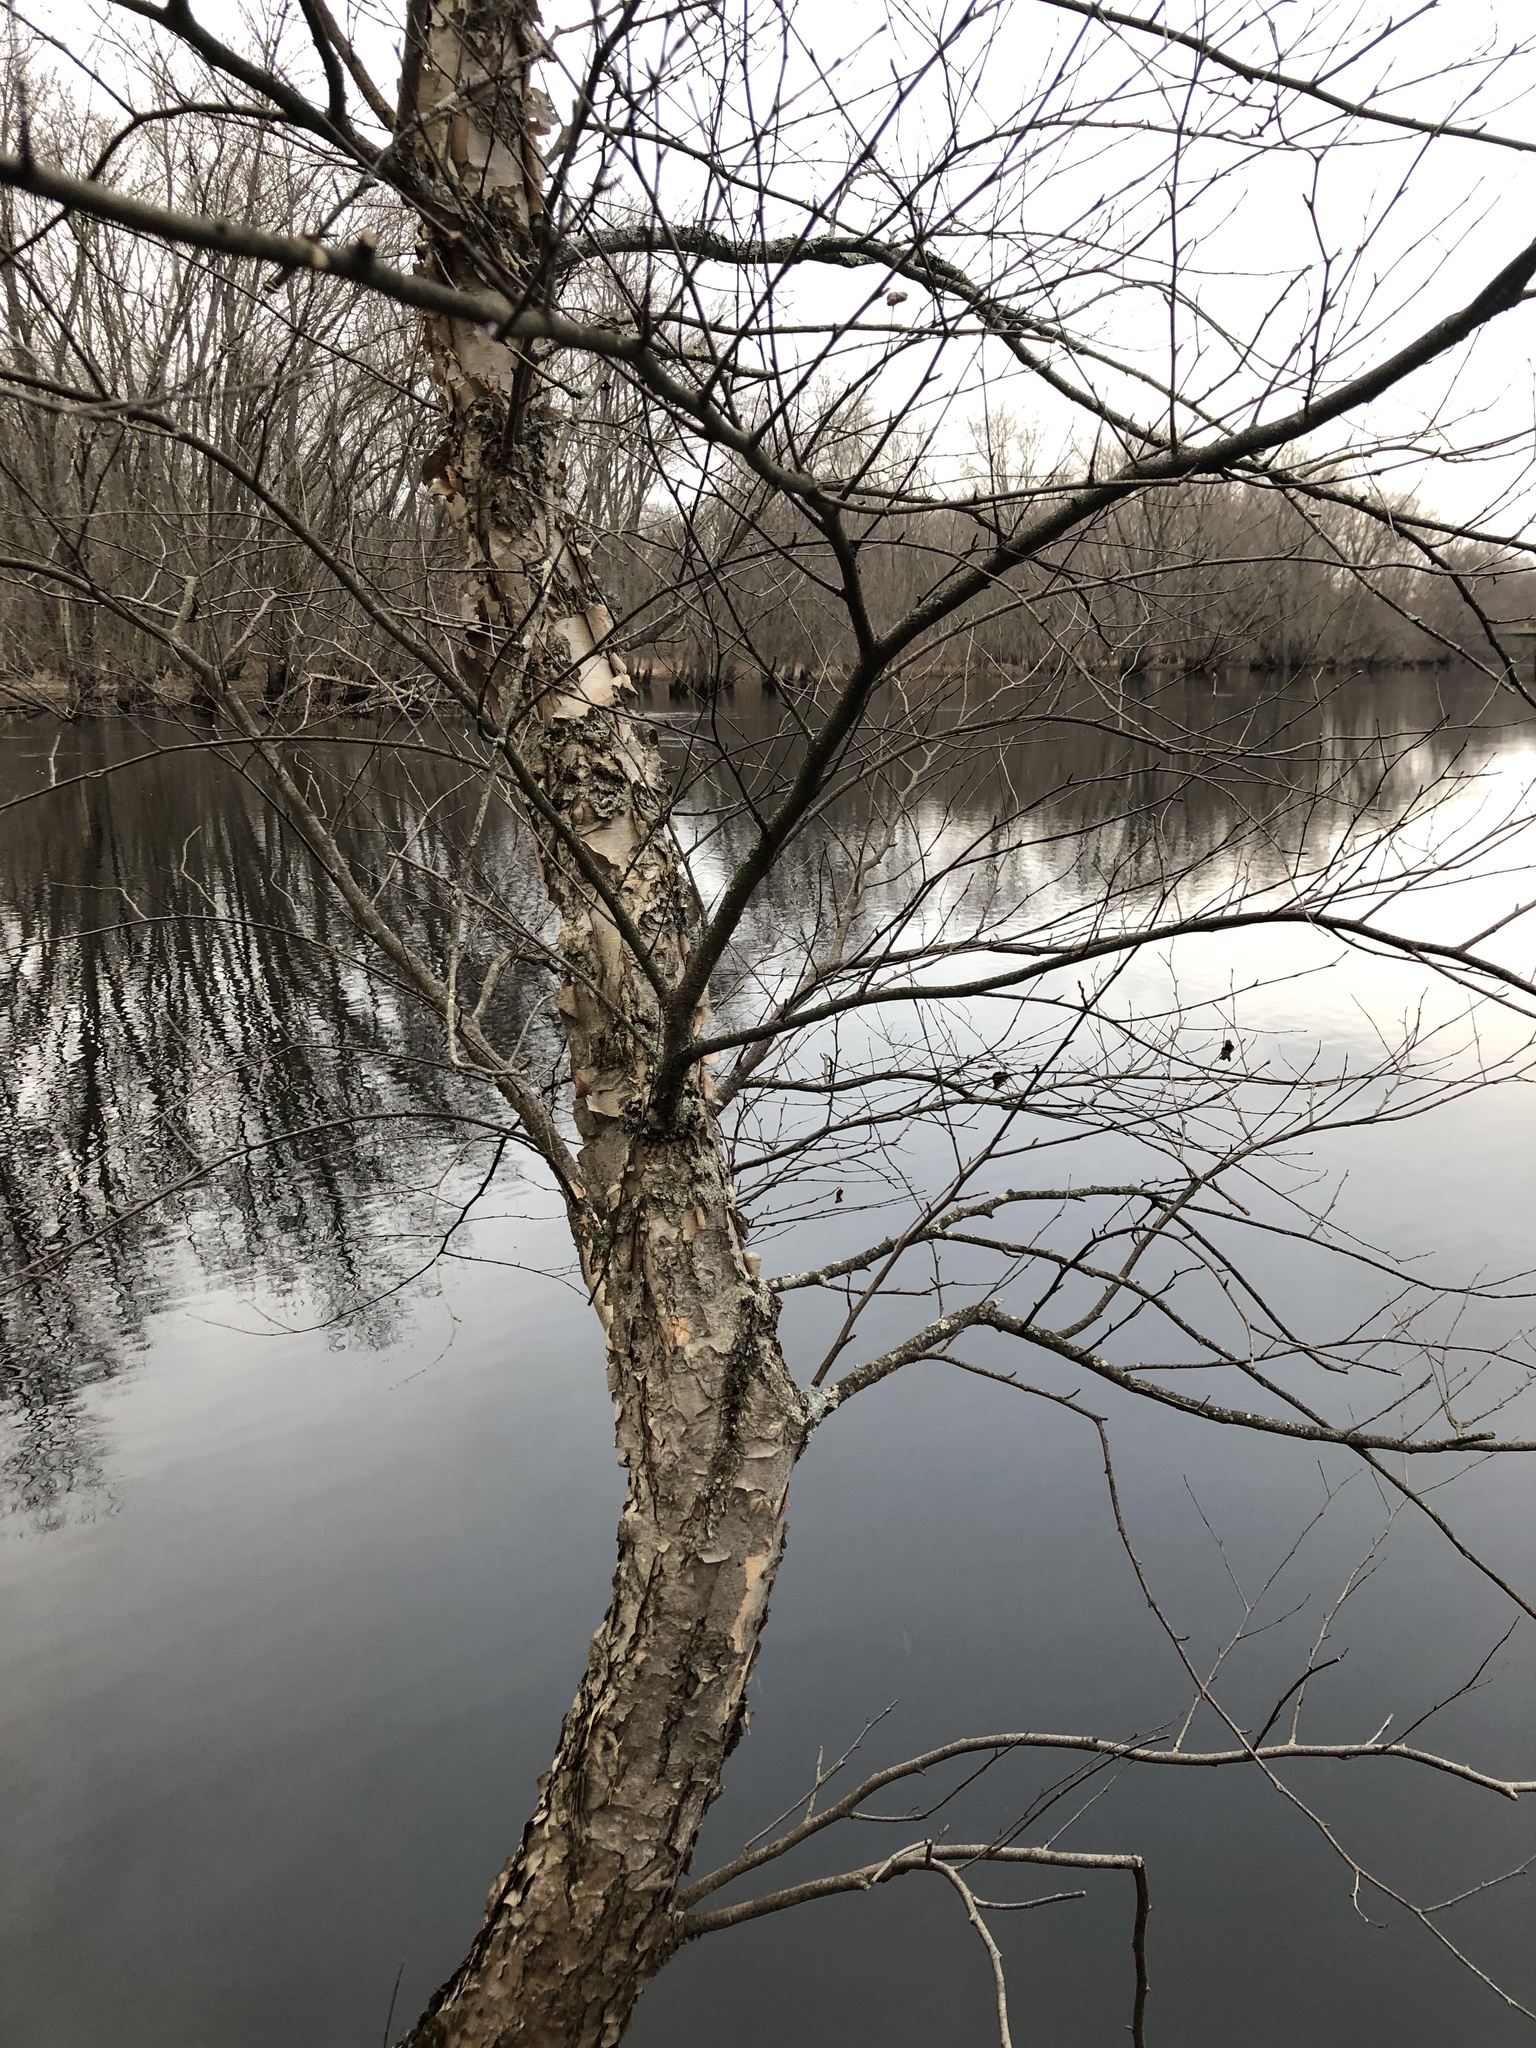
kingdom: Plantae
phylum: Tracheophyta
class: Magnoliopsida
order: Fagales
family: Betulaceae
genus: Betula
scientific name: Betula nigra
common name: Black birch
